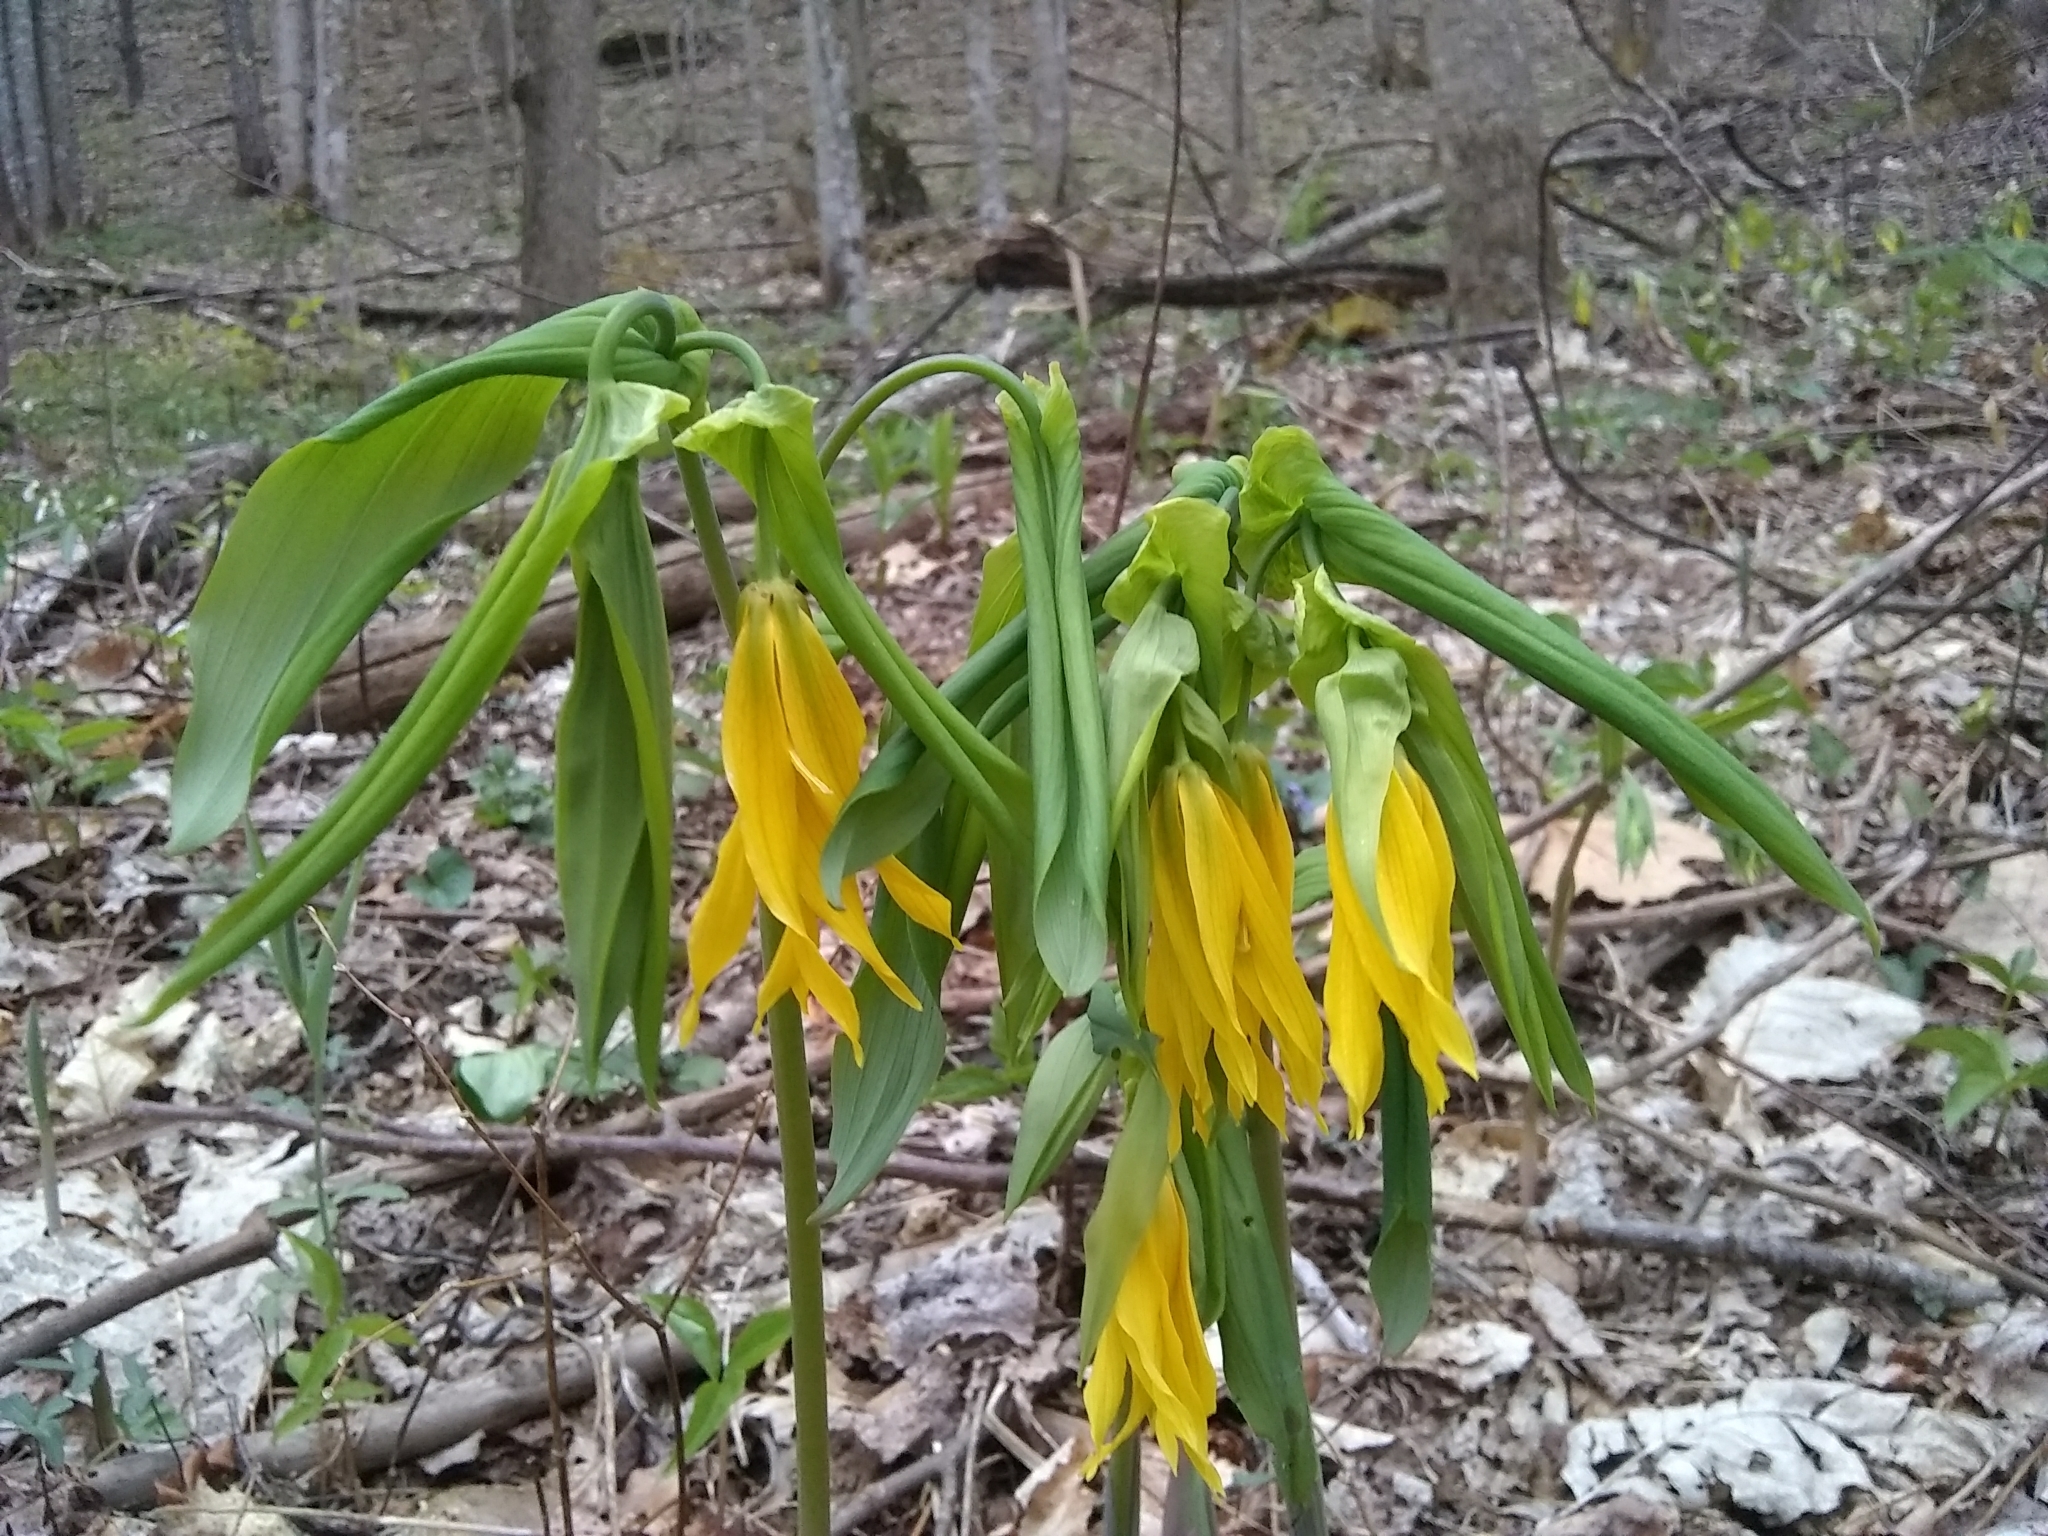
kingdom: Plantae
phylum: Tracheophyta
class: Liliopsida
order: Liliales
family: Colchicaceae
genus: Uvularia
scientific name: Uvularia grandiflora
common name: Bellwort
